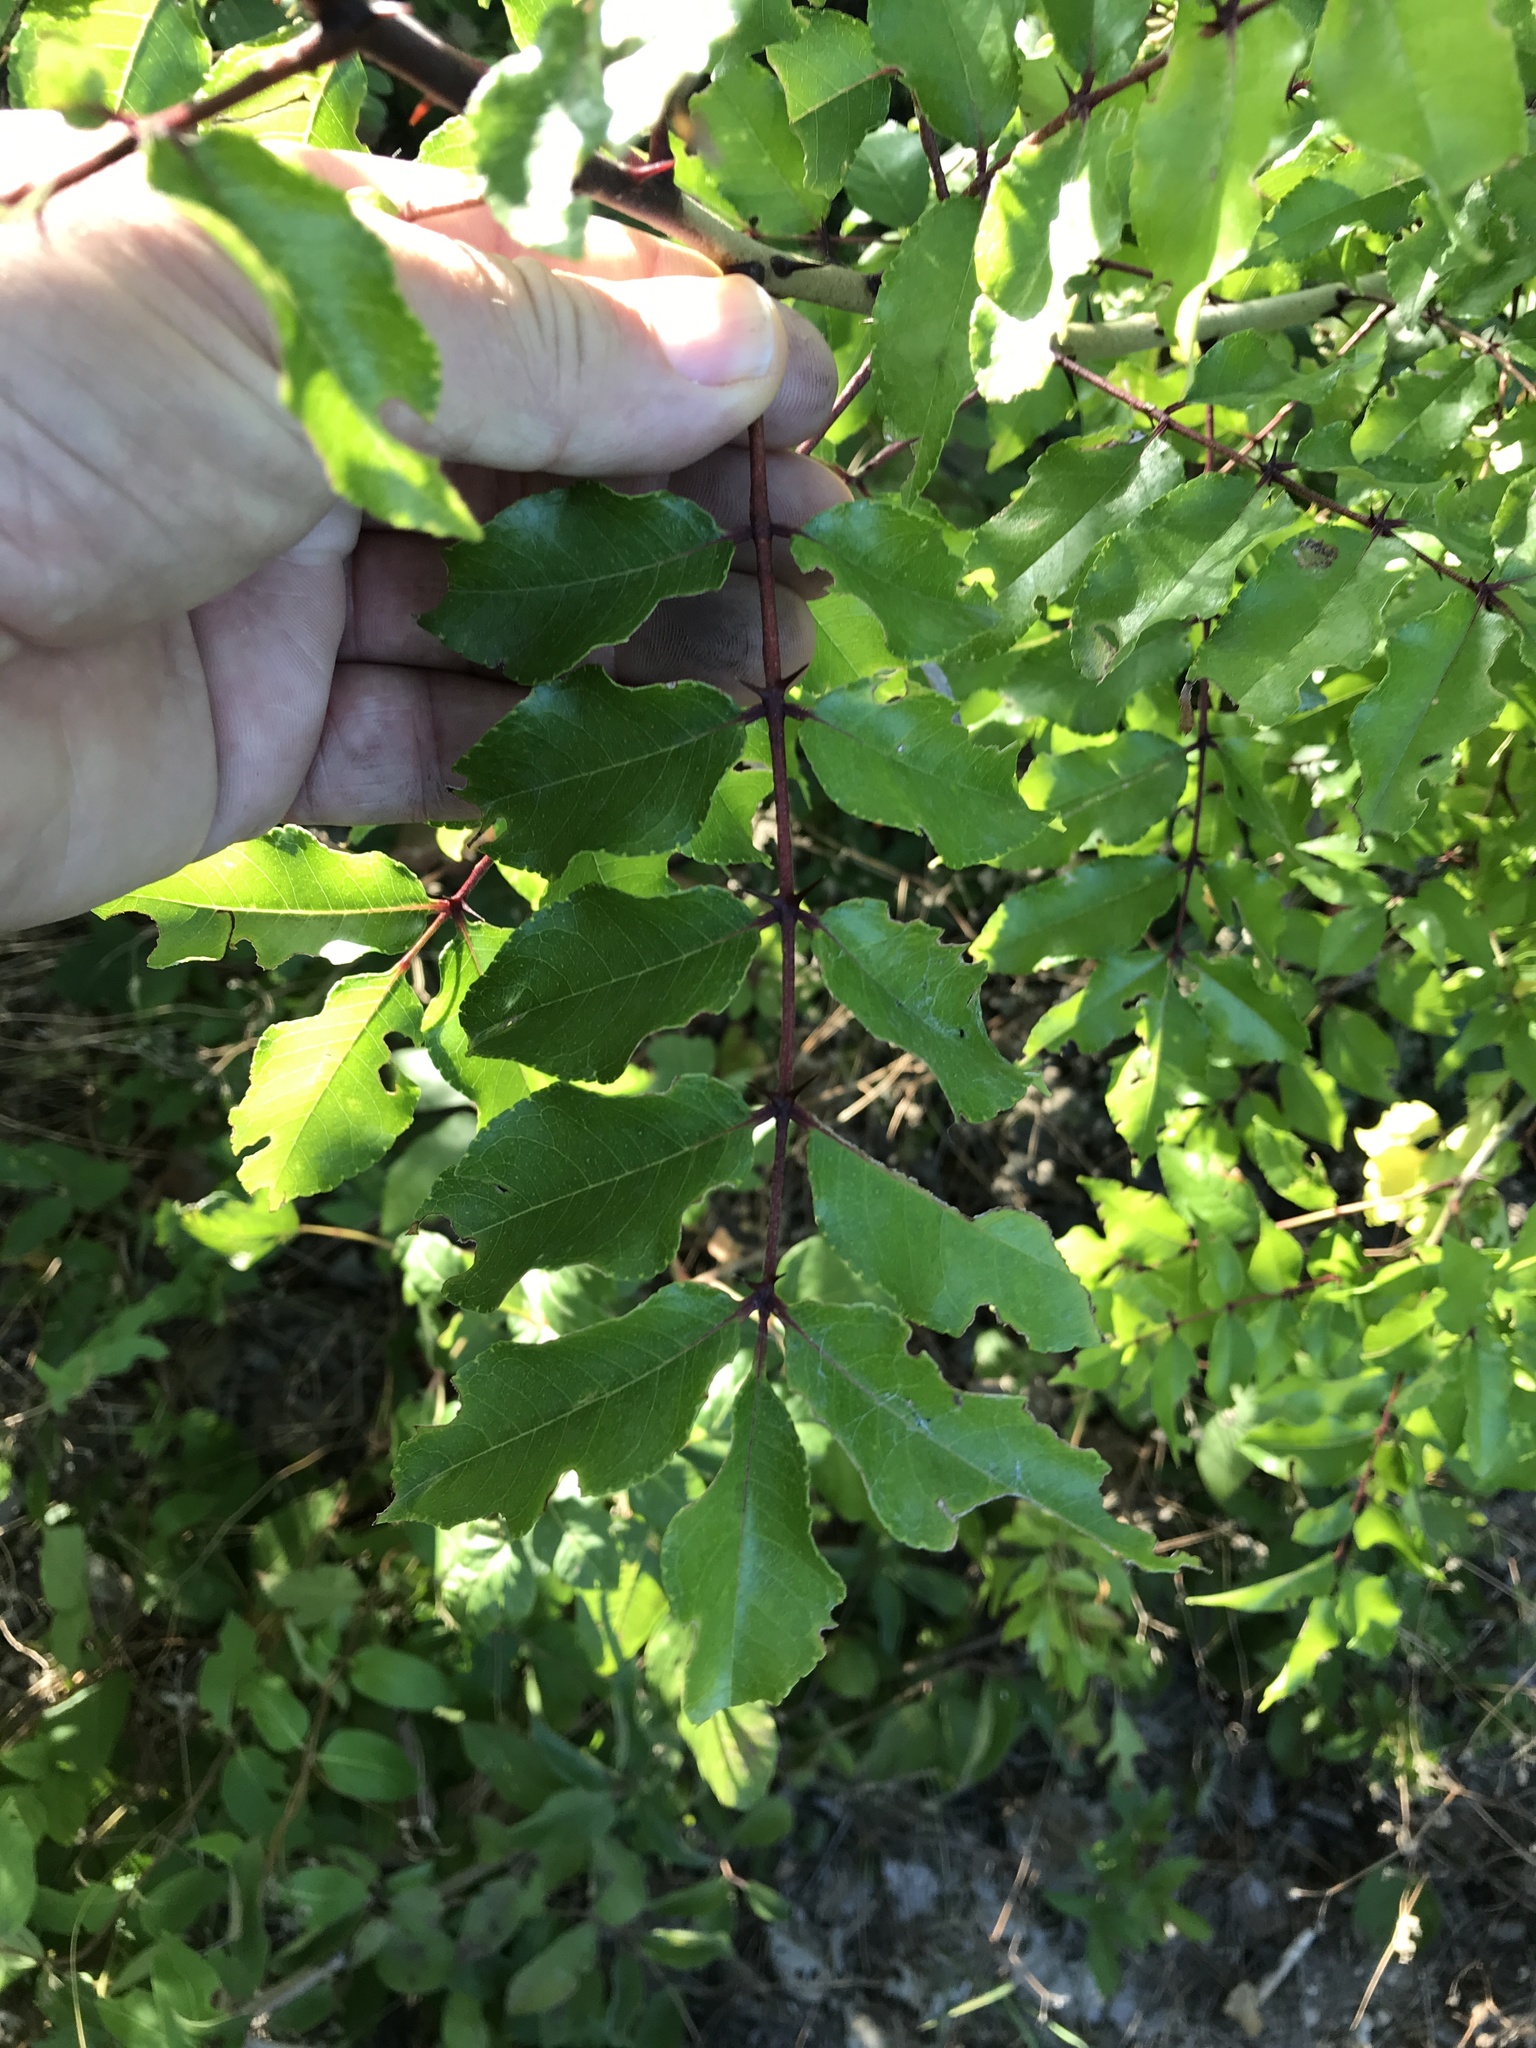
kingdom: Plantae
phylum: Tracheophyta
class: Magnoliopsida
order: Sapindales
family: Rutaceae
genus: Zanthoxylum
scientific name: Zanthoxylum clava-herculis
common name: Hercules'-club
